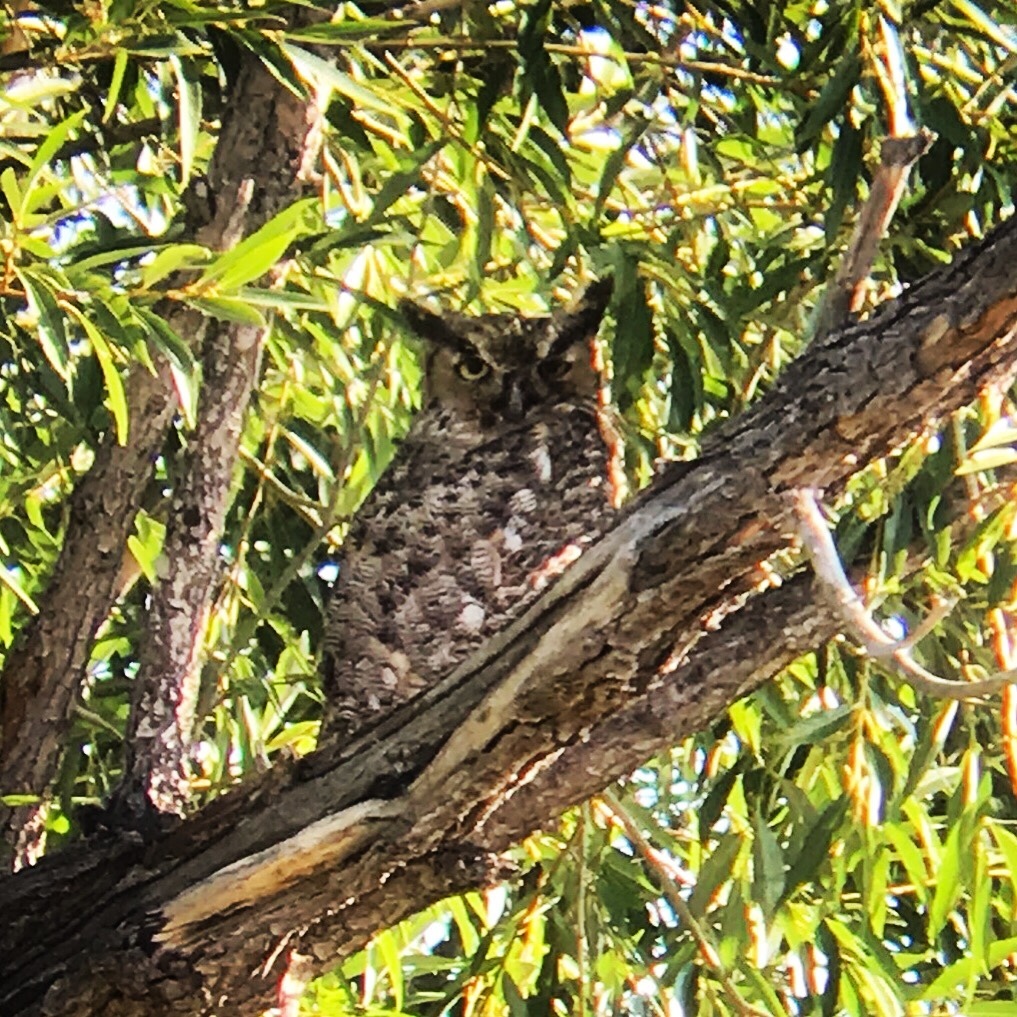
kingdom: Animalia
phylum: Chordata
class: Aves
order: Strigiformes
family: Strigidae
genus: Bubo
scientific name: Bubo virginianus
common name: Great horned owl
